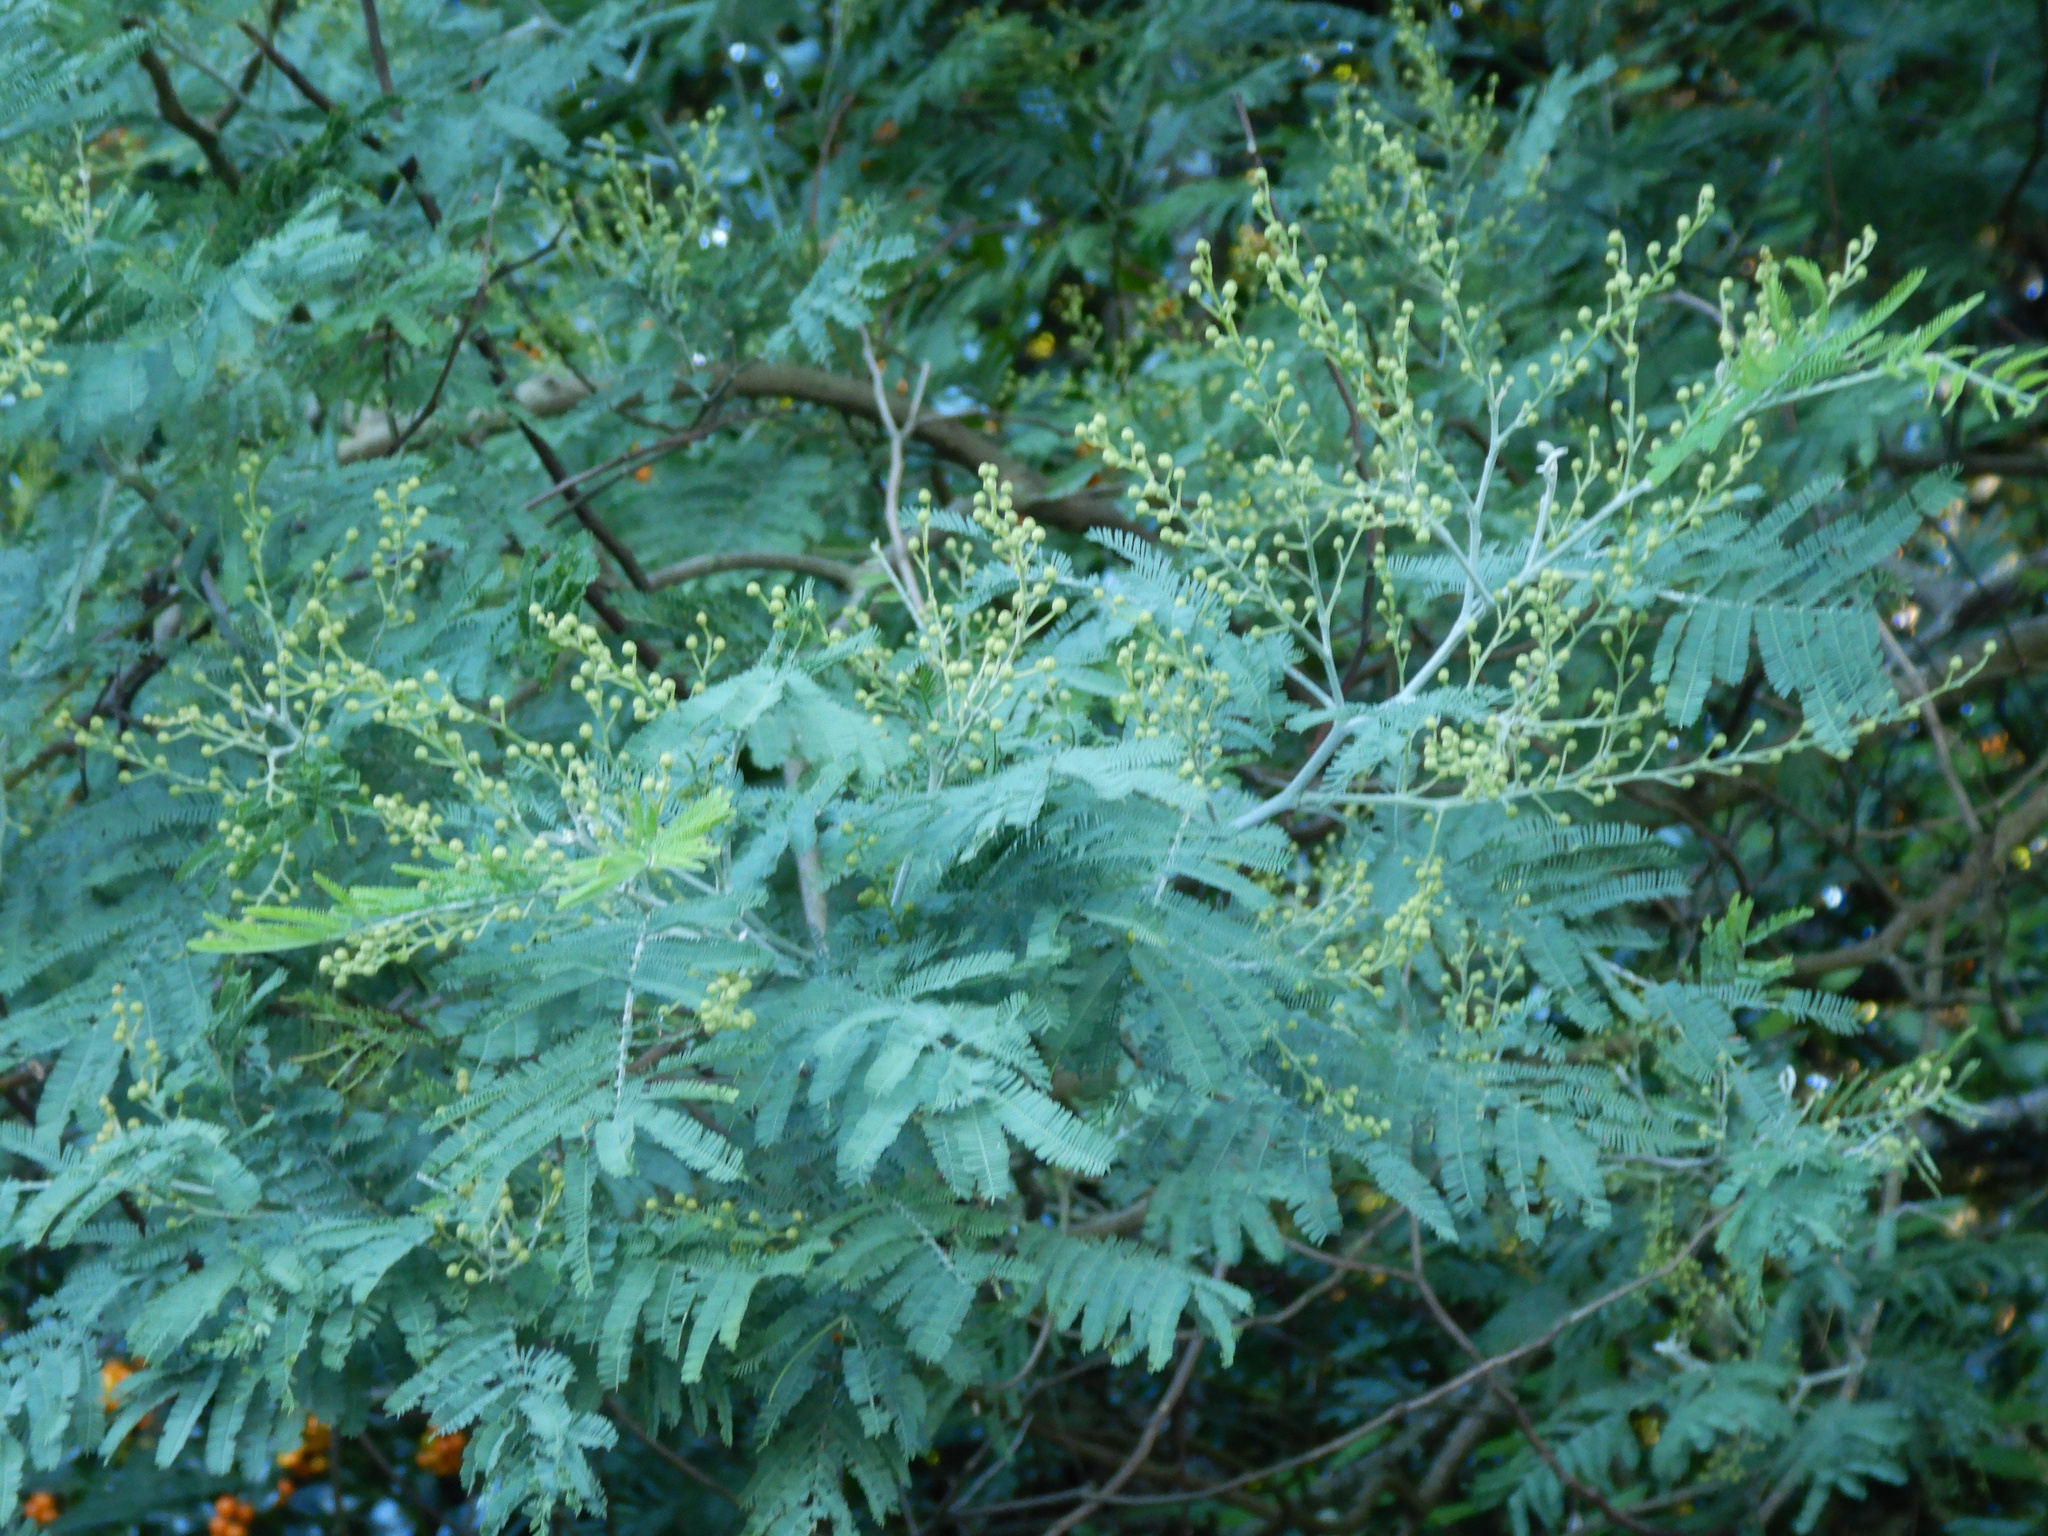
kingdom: Plantae
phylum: Tracheophyta
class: Magnoliopsida
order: Fabales
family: Fabaceae
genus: Acacia
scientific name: Acacia dealbata
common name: Silver wattle
